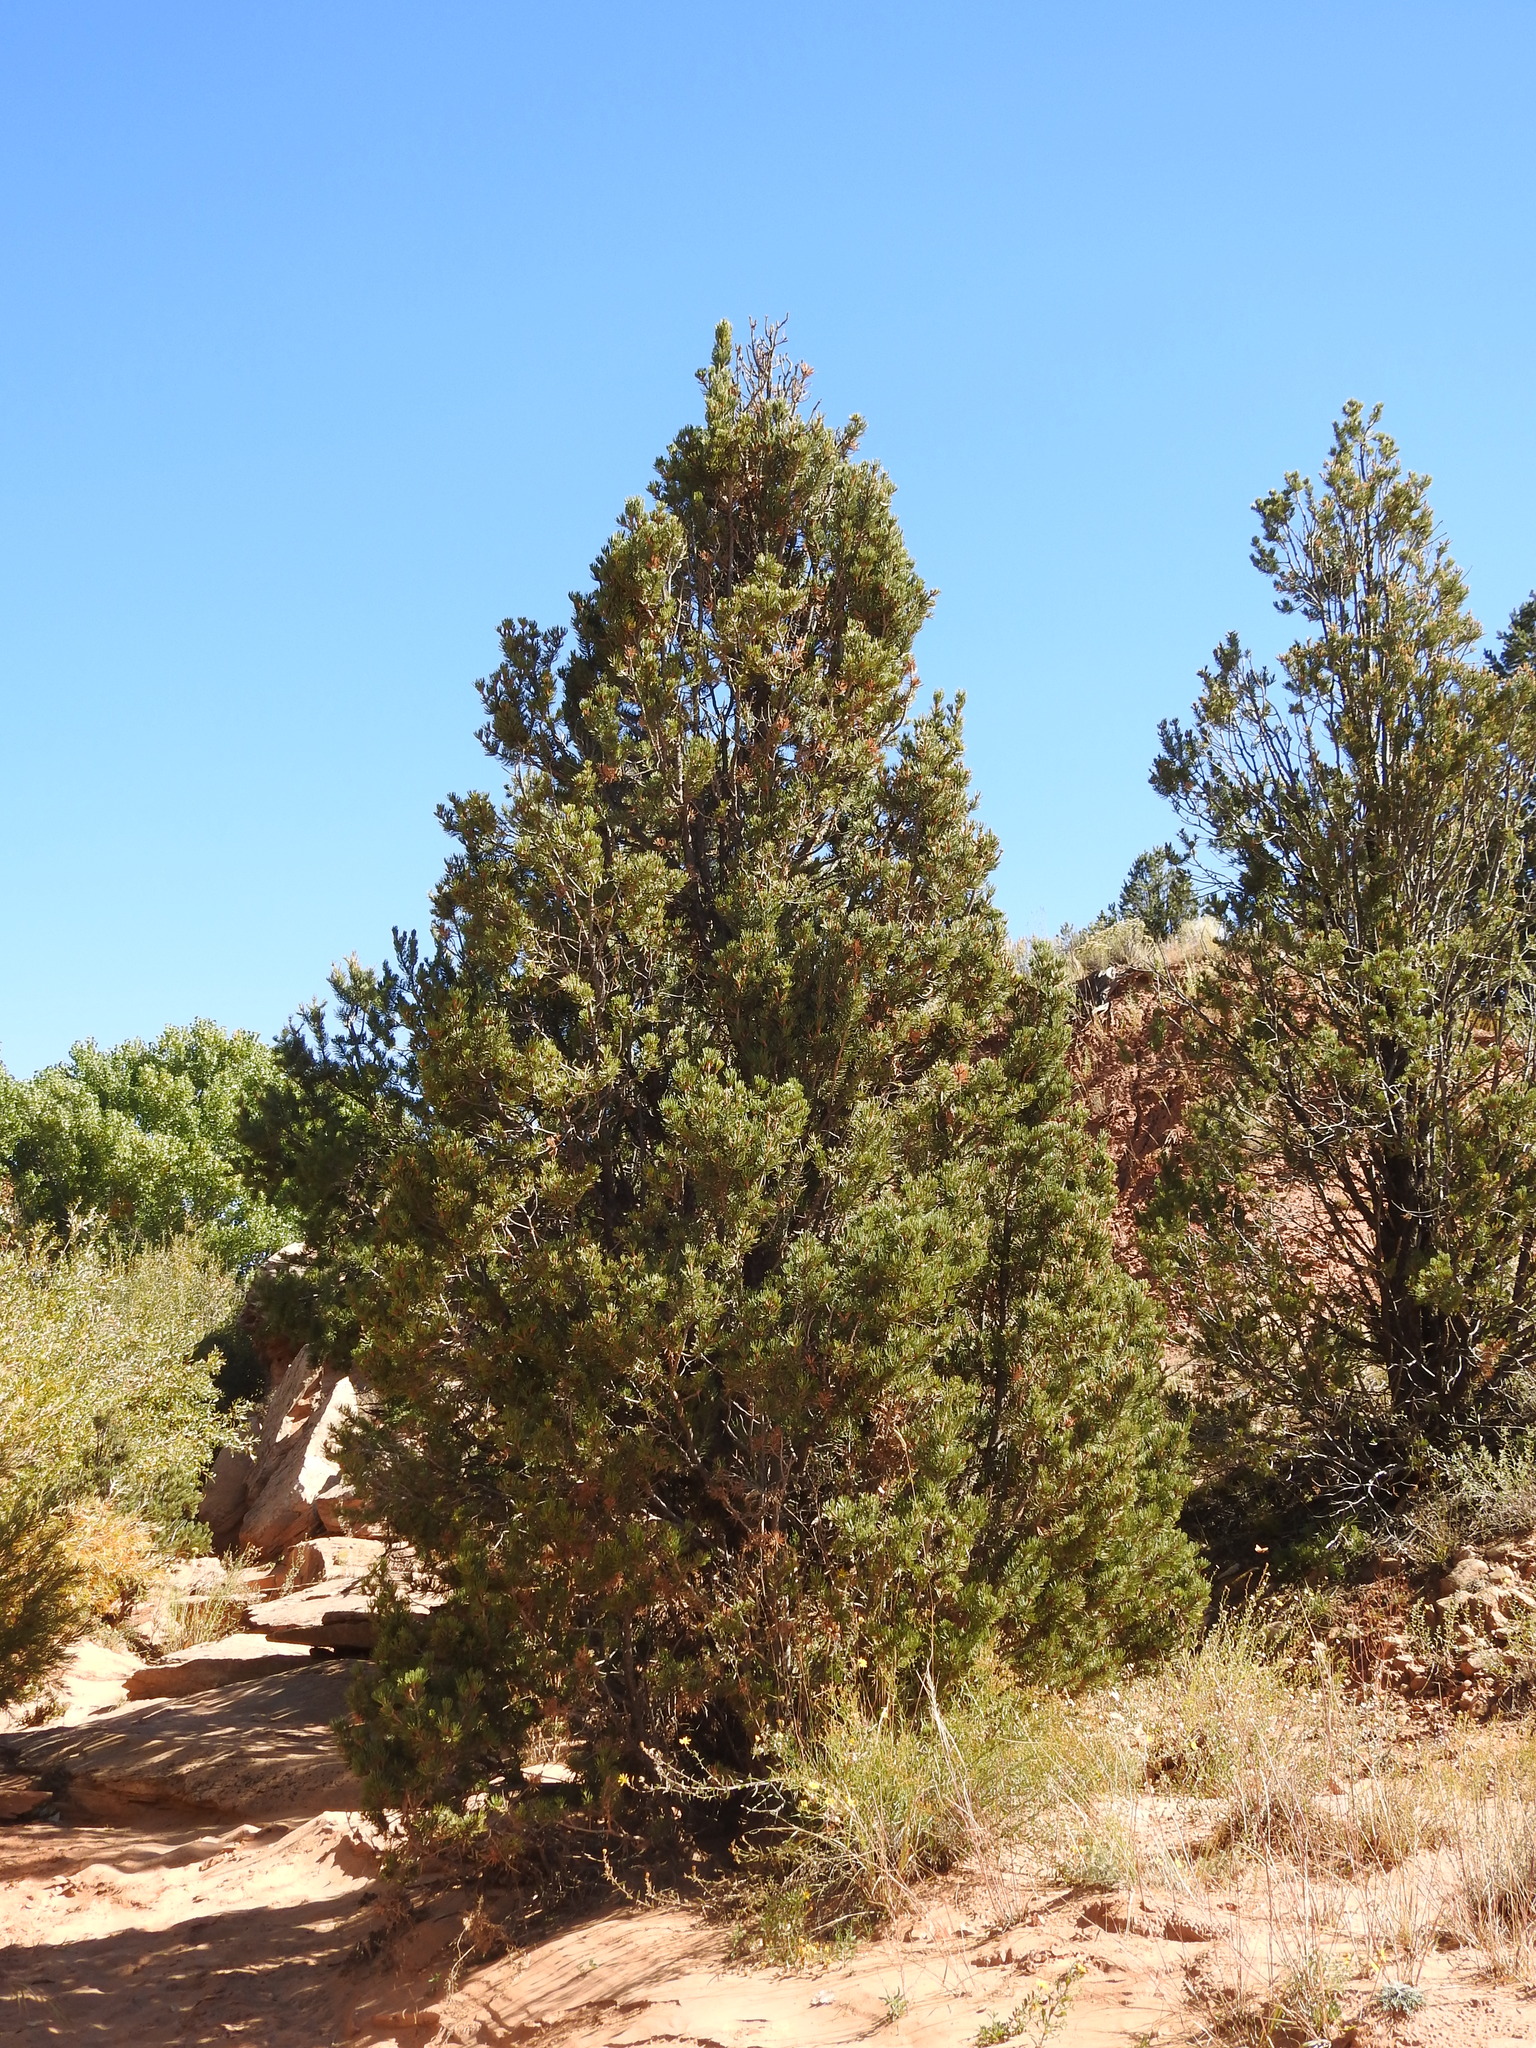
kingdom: Plantae
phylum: Tracheophyta
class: Pinopsida
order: Pinales
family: Pinaceae
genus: Pinus
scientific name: Pinus edulis
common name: Colorado pinyon
